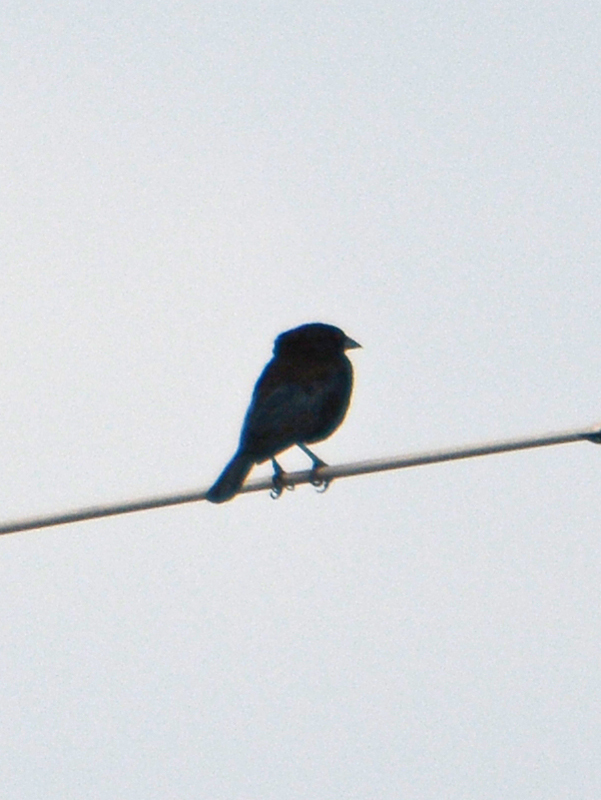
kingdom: Animalia
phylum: Chordata
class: Aves
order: Passeriformes
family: Icteridae
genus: Molothrus
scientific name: Molothrus aeneus
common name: Bronzed cowbird
